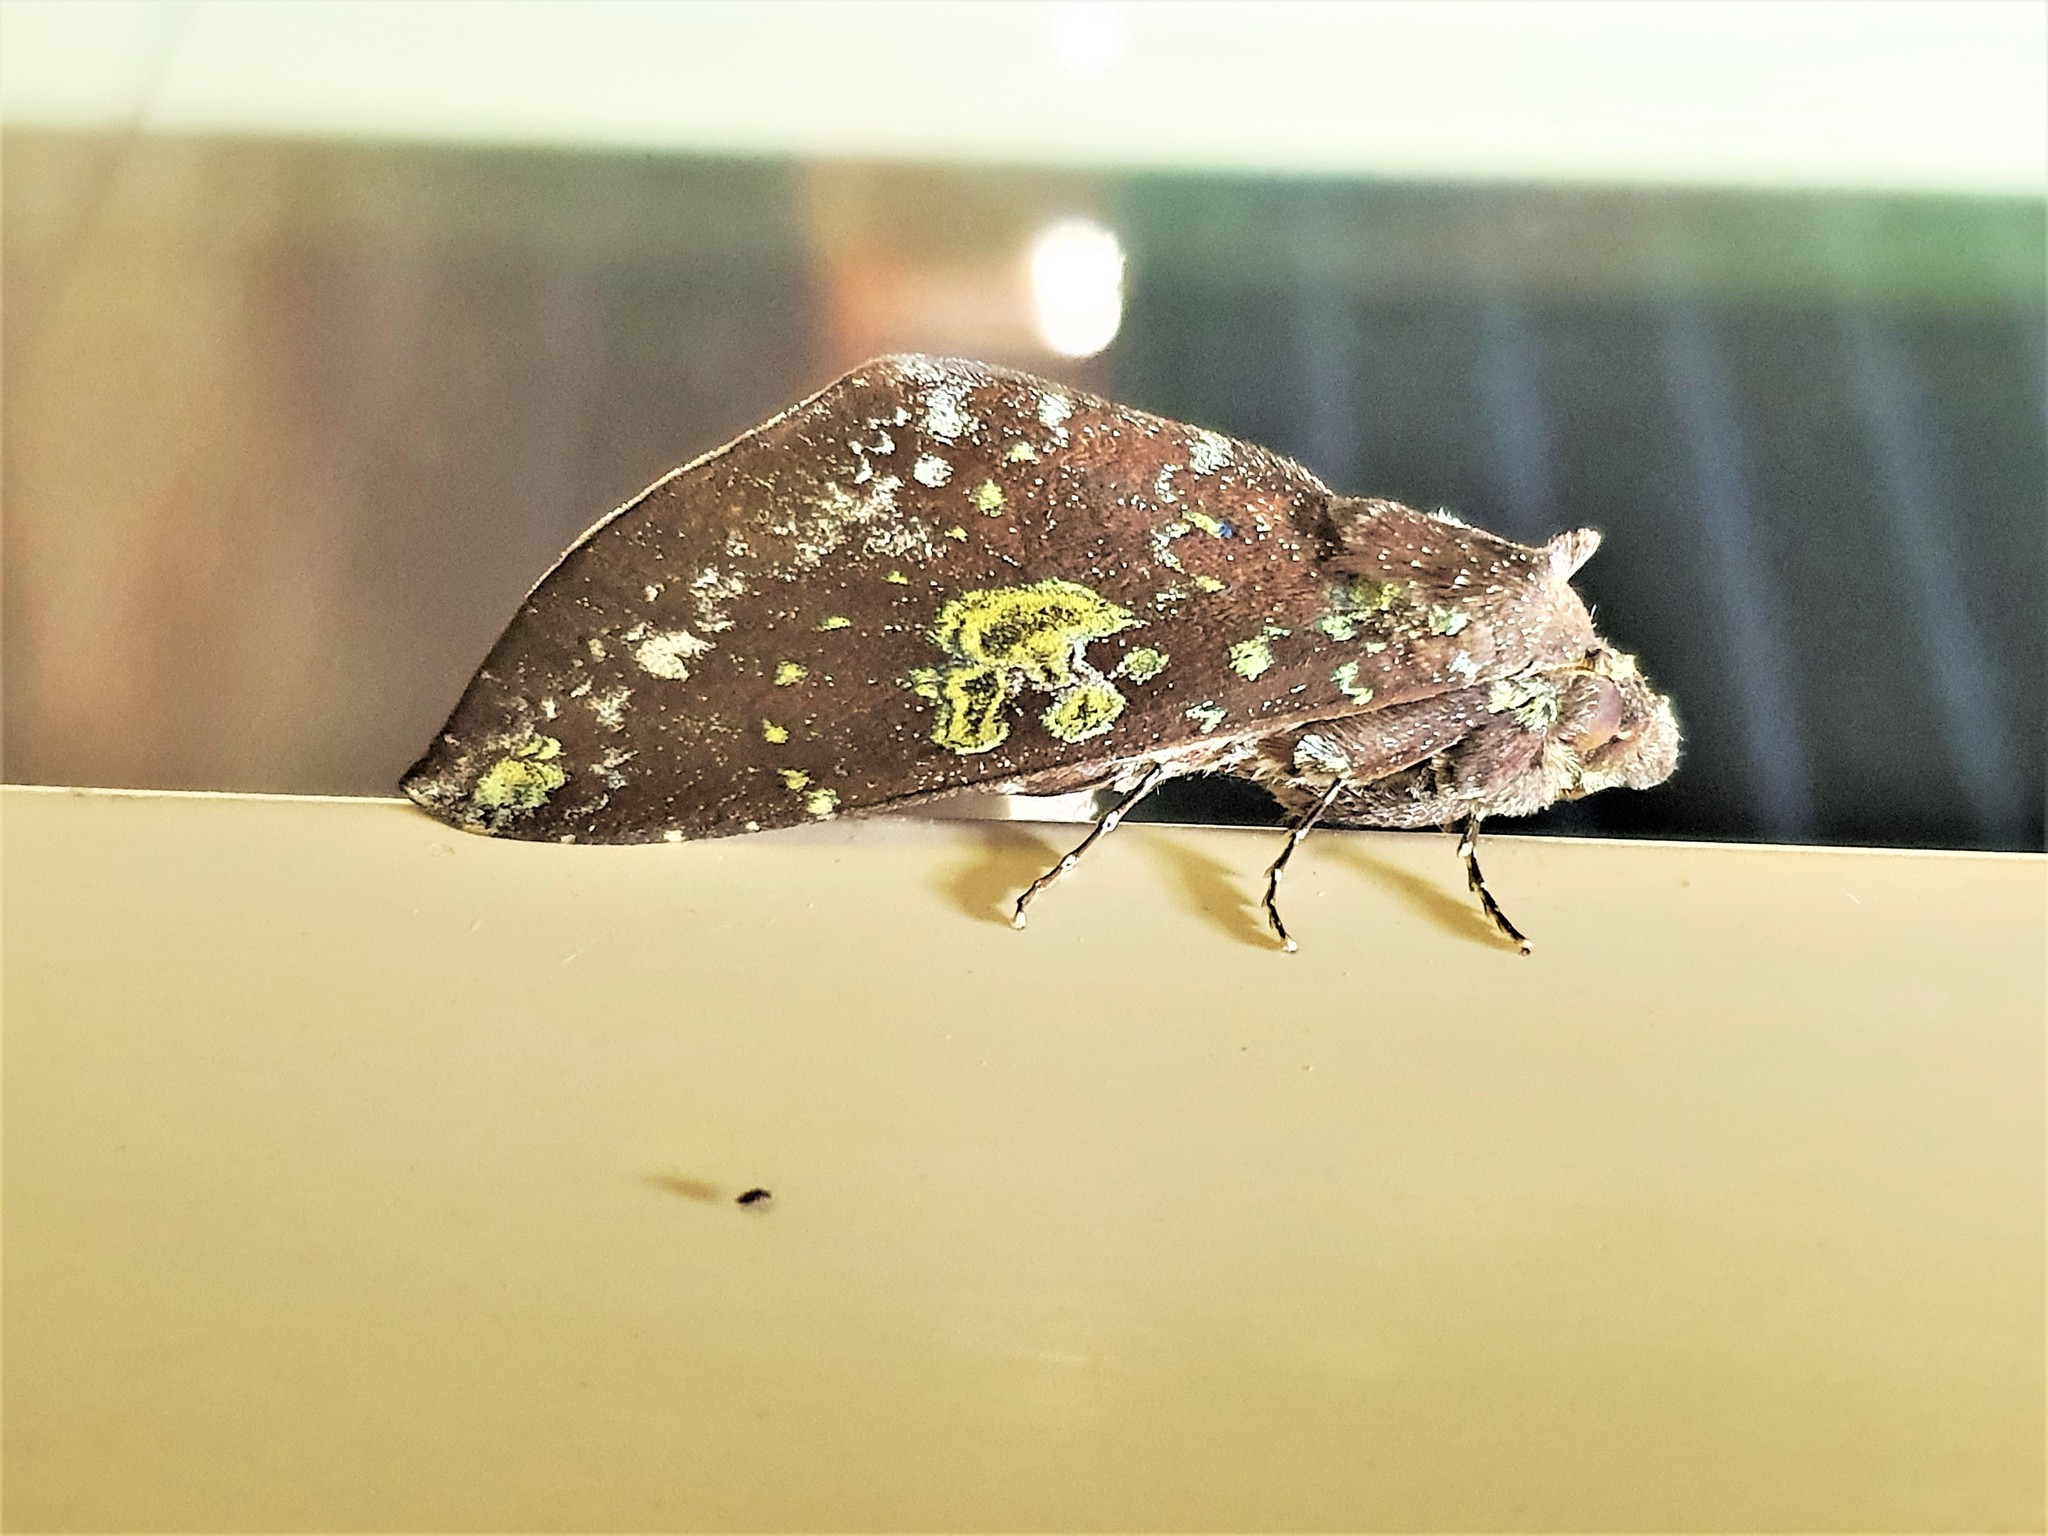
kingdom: Animalia
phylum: Arthropoda
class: Insecta
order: Lepidoptera
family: Notodontidae
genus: Hapigia
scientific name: Hapigia gaudens
